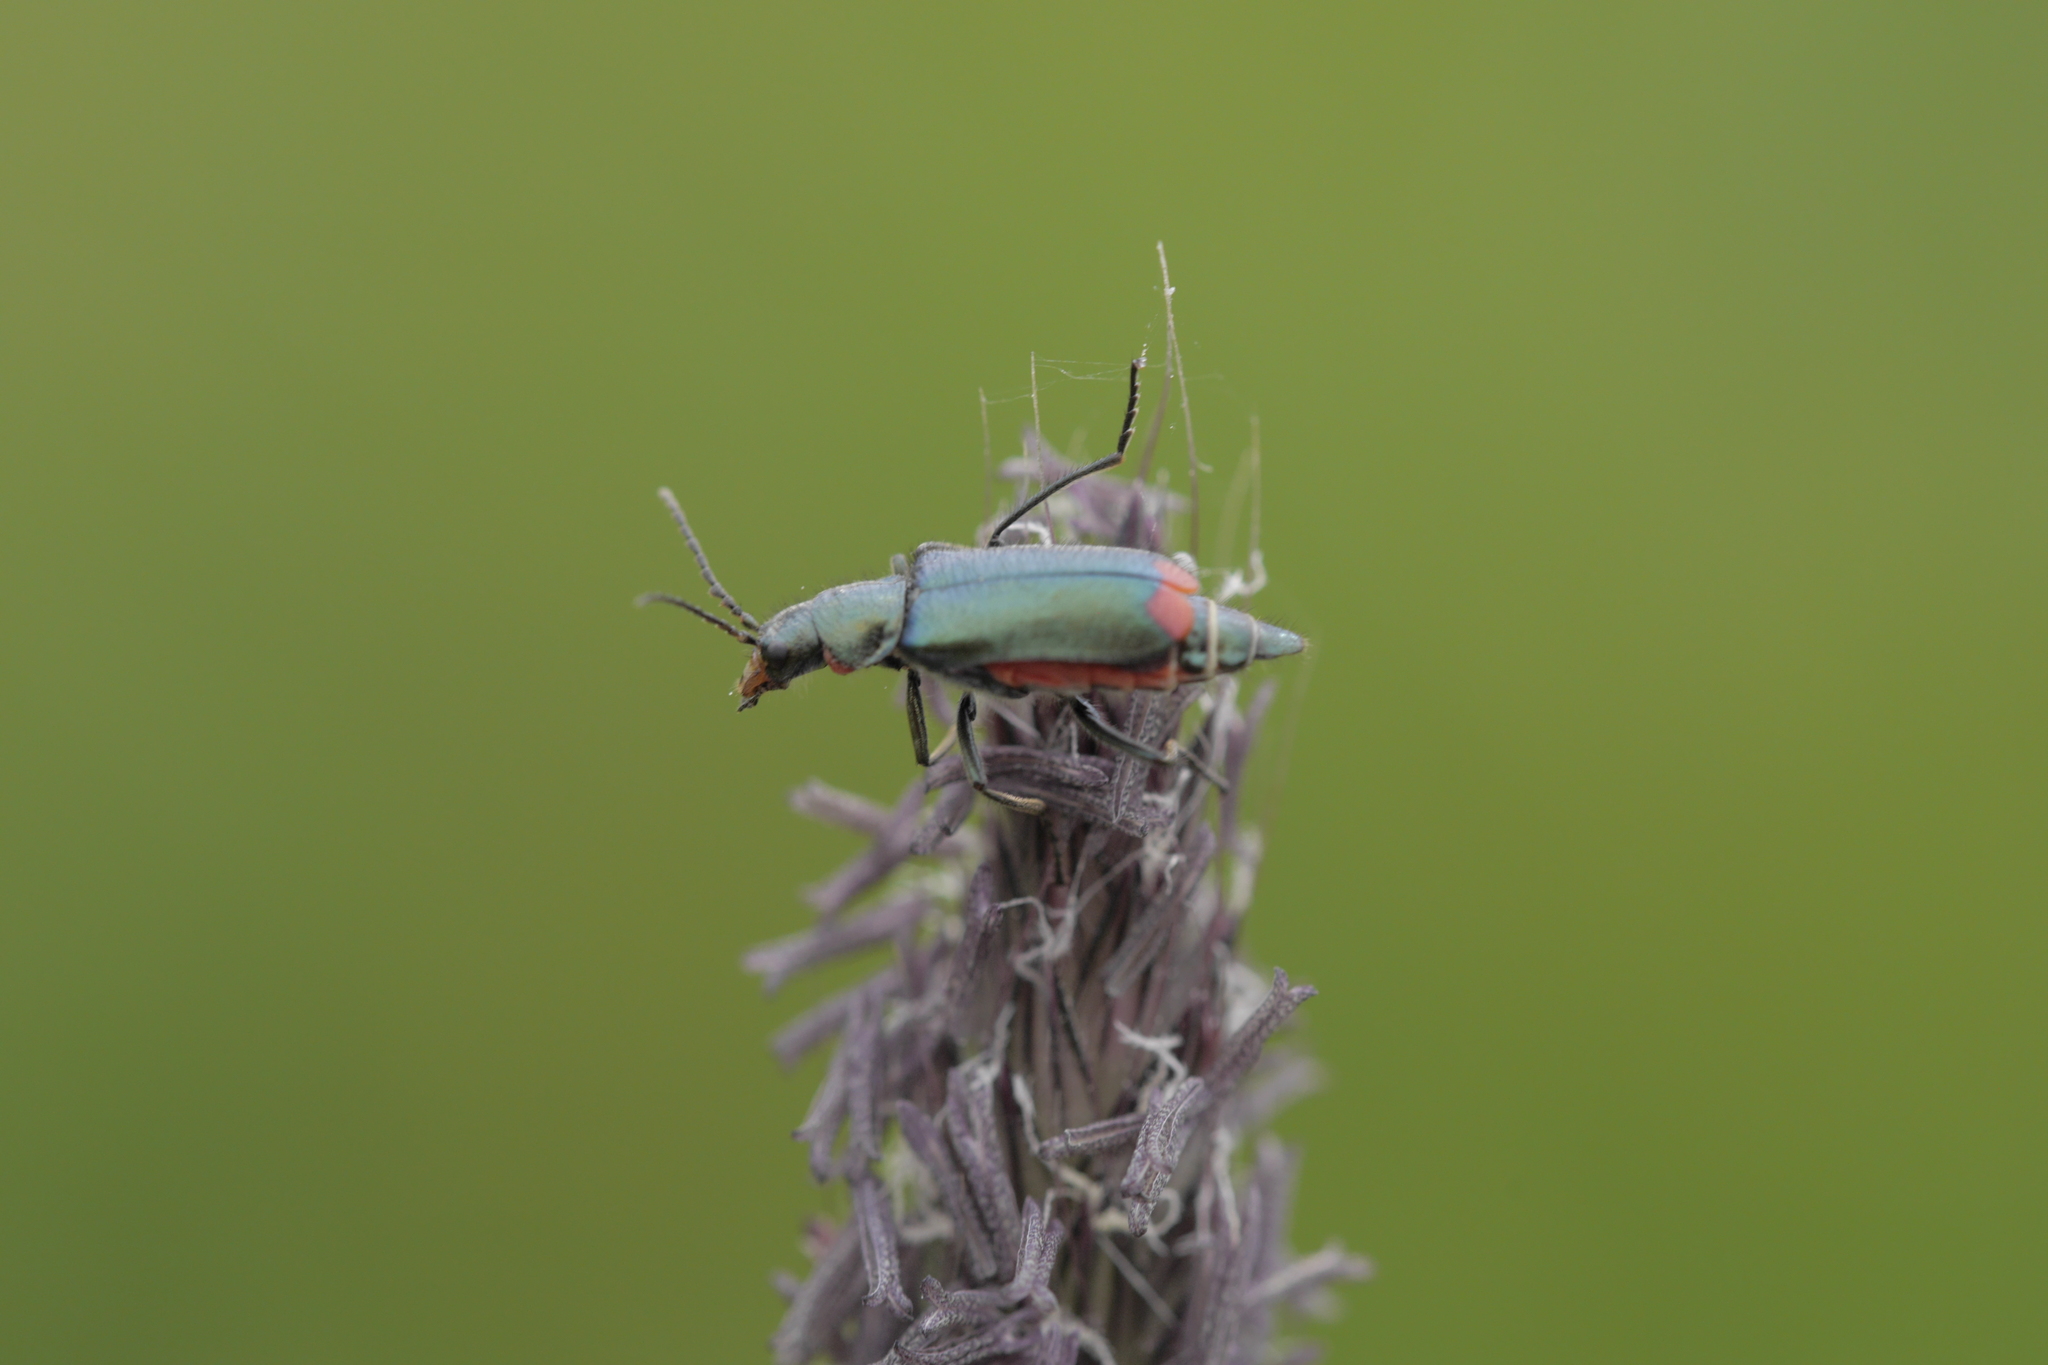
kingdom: Animalia
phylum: Arthropoda
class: Insecta
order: Coleoptera
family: Melyridae
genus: Malachius
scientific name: Malachius bipustulatus
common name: Malachite beetle
